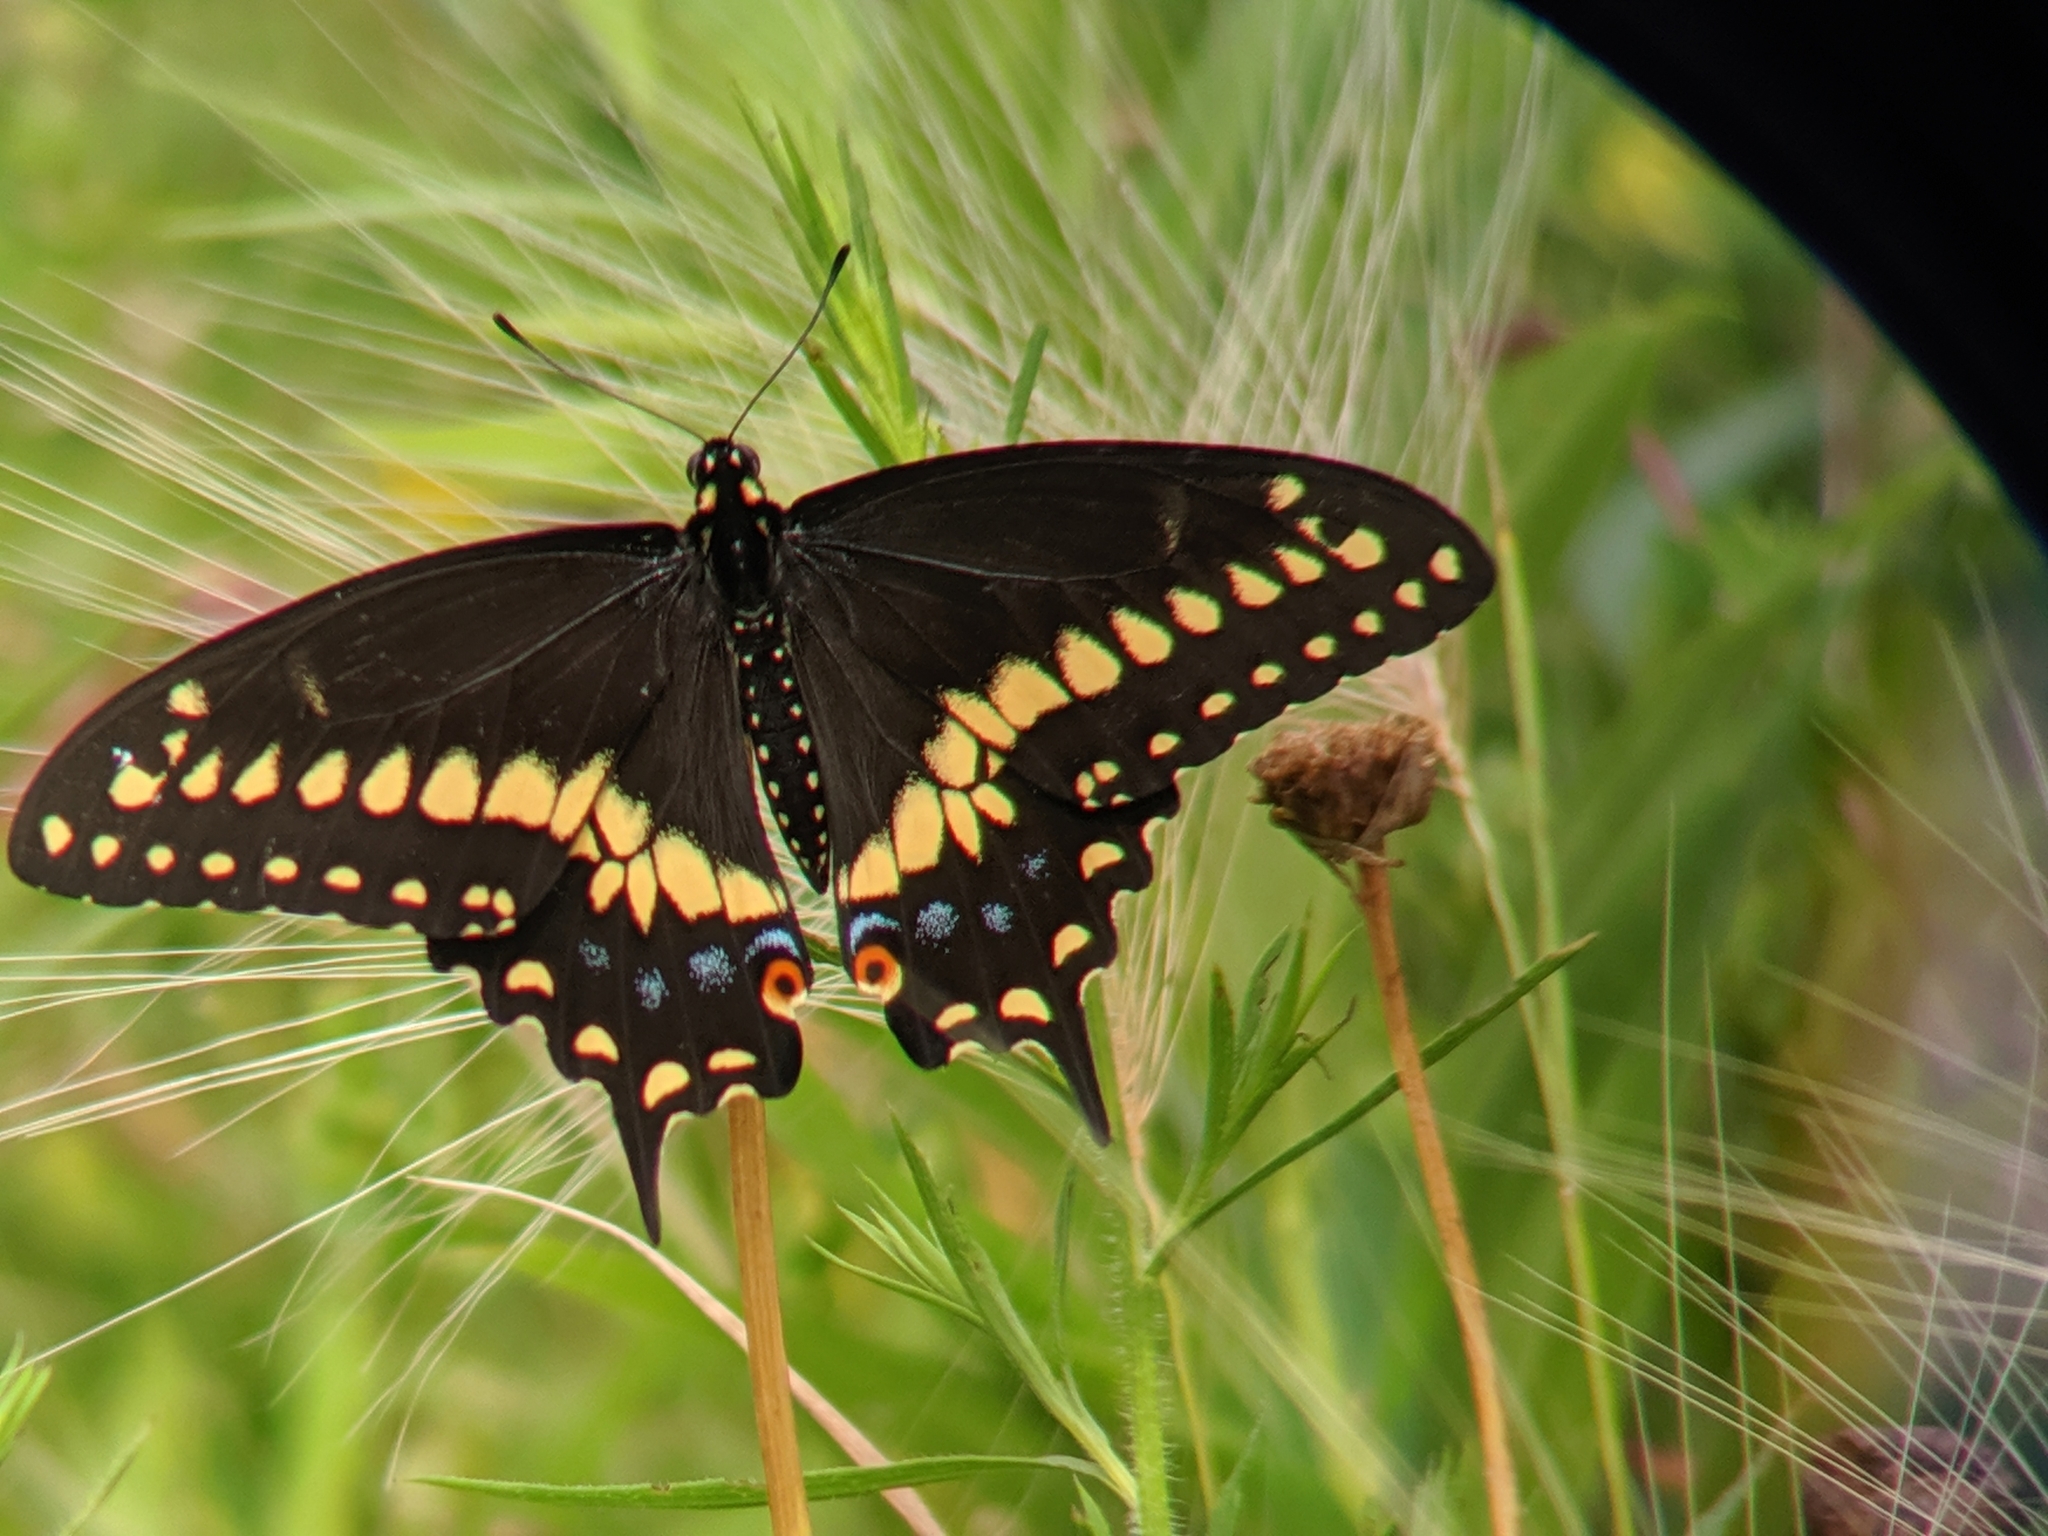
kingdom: Animalia
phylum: Arthropoda
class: Insecta
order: Lepidoptera
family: Papilionidae
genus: Papilio
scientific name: Papilio polyxenes
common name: Black swallowtail
